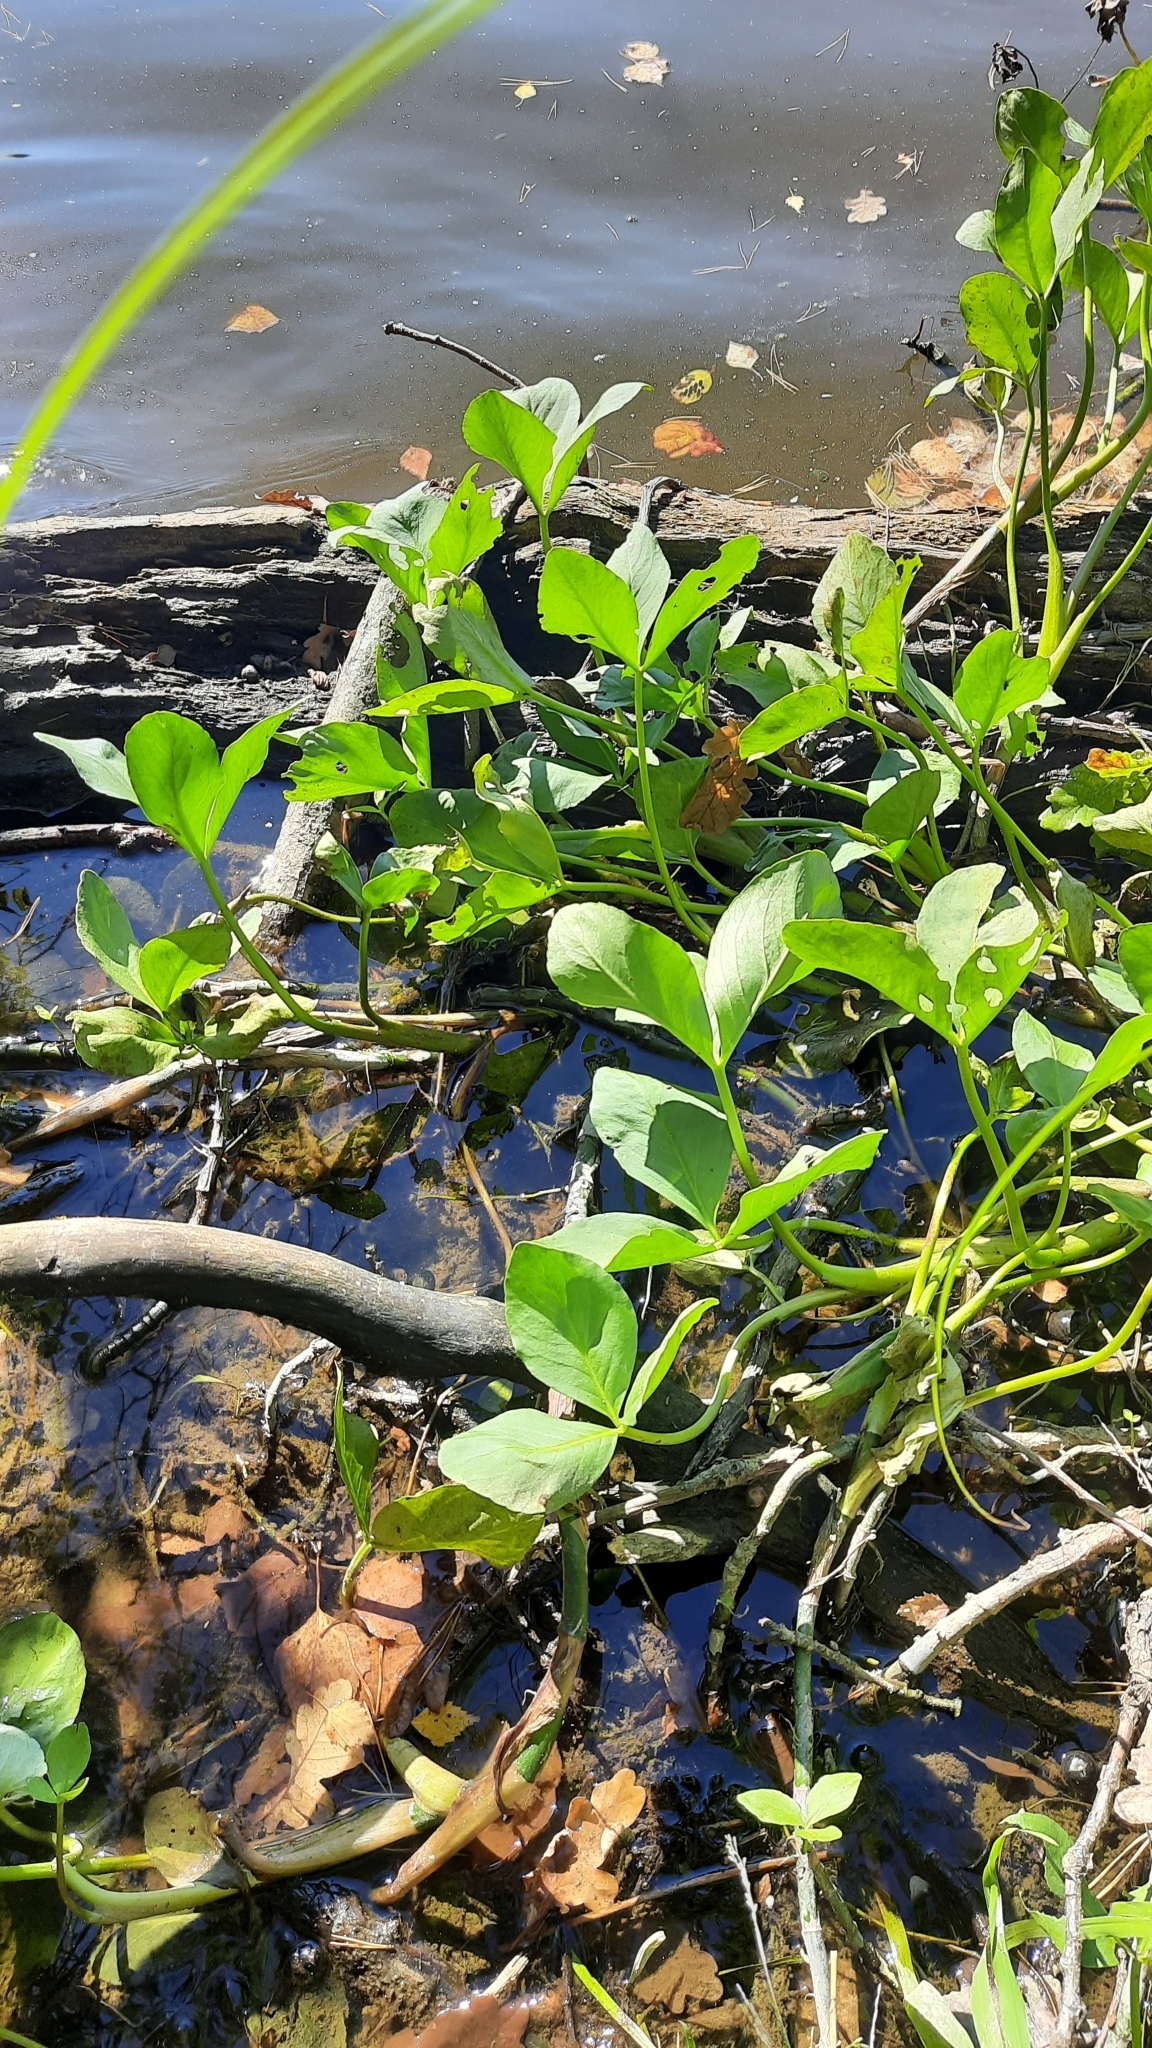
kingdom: Plantae
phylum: Tracheophyta
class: Magnoliopsida
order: Asterales
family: Menyanthaceae
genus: Menyanthes
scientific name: Menyanthes trifoliata
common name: Bogbean
